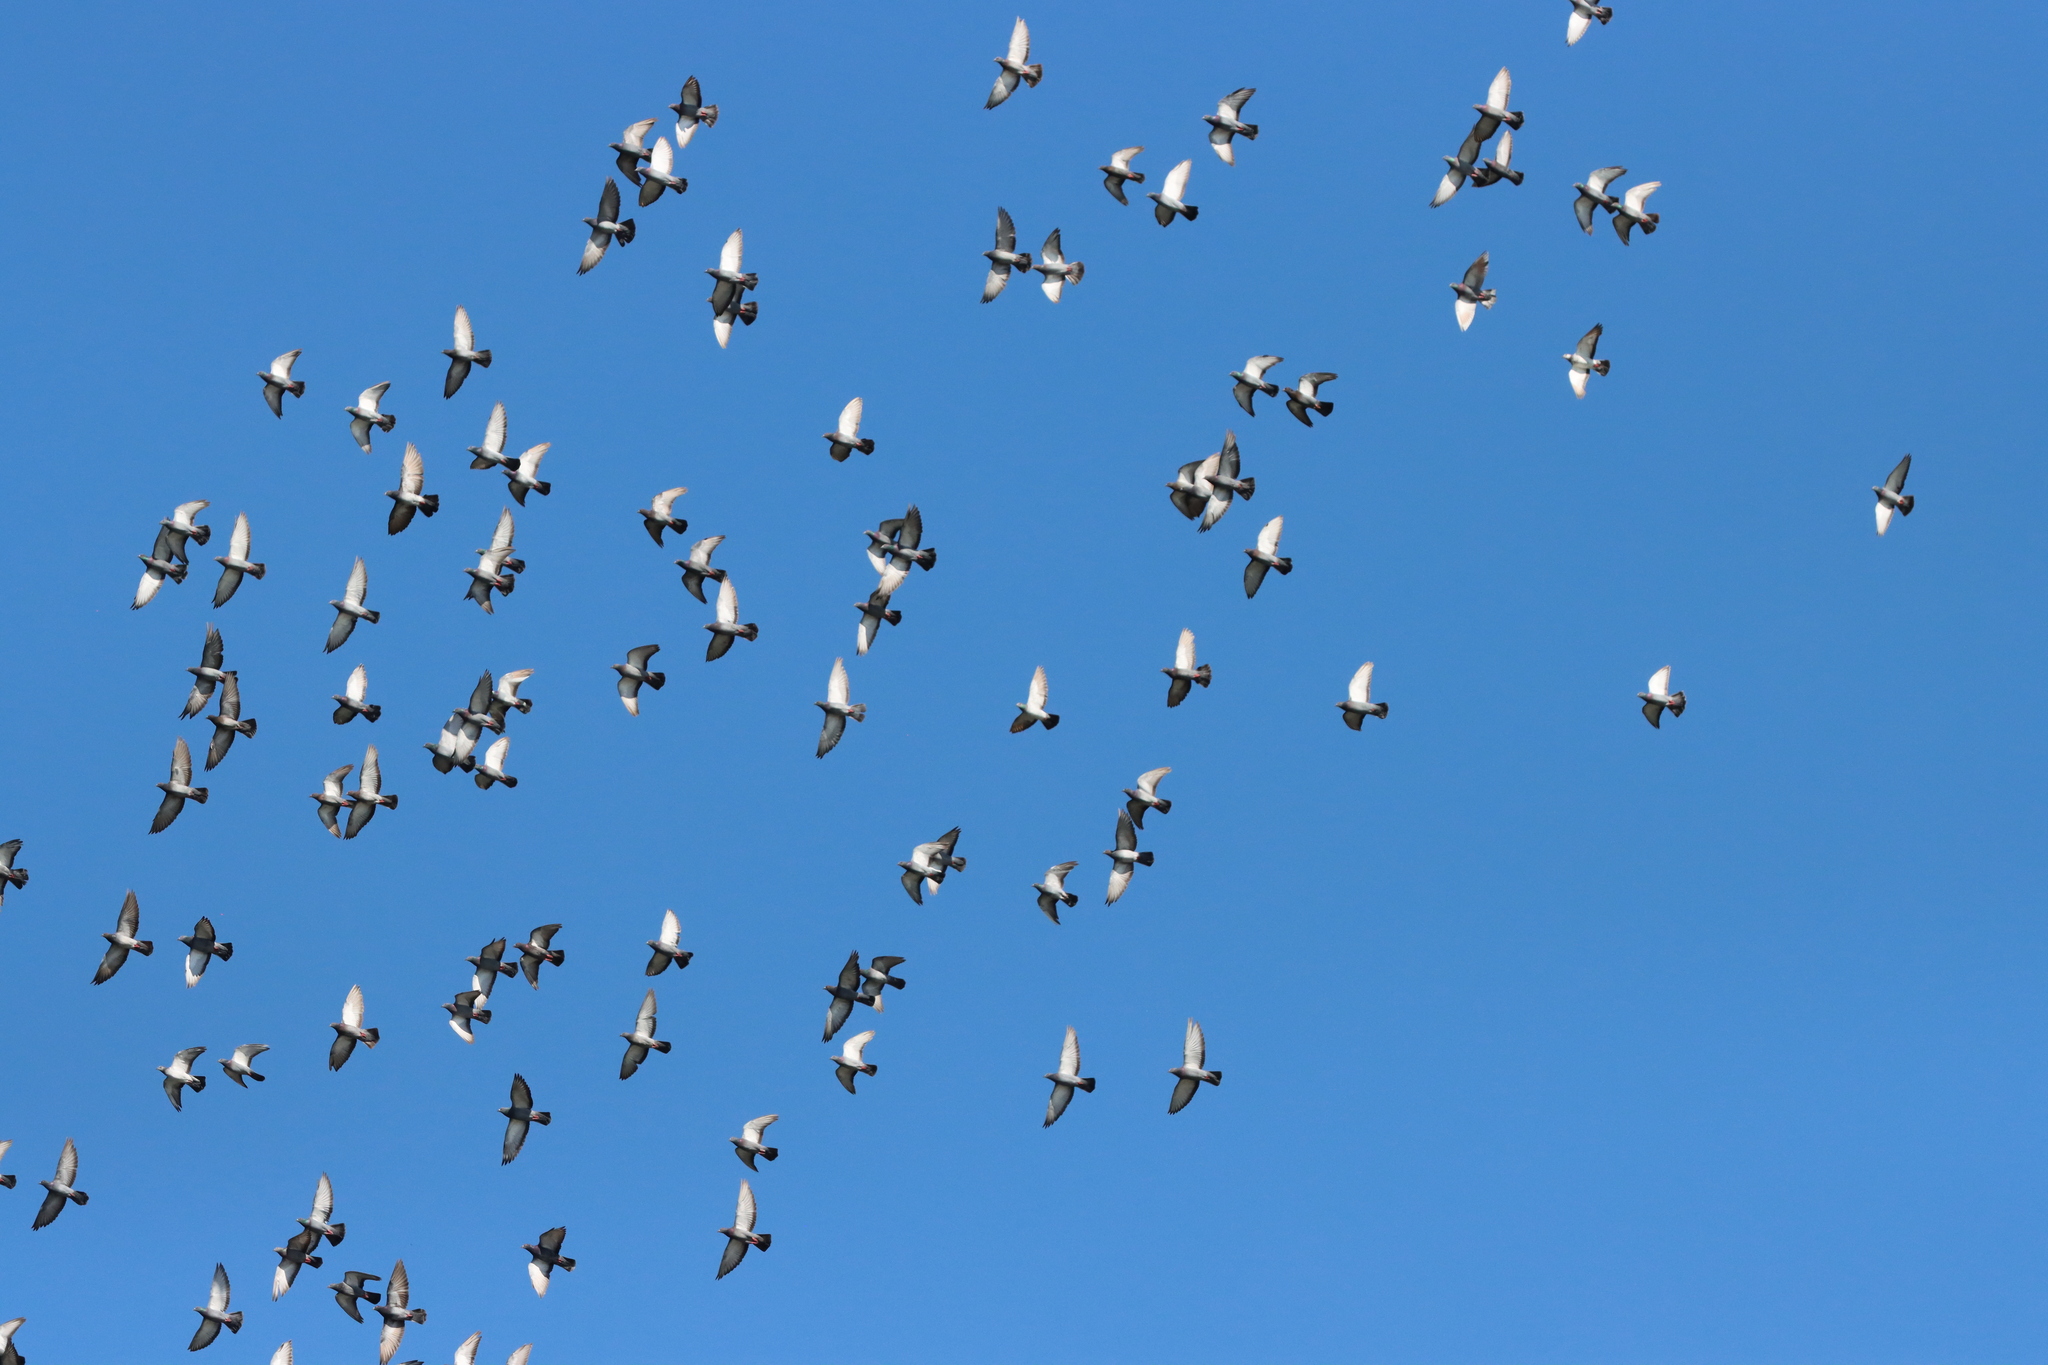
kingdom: Animalia
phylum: Chordata
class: Aves
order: Columbiformes
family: Columbidae
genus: Columba
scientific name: Columba livia
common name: Rock pigeon
